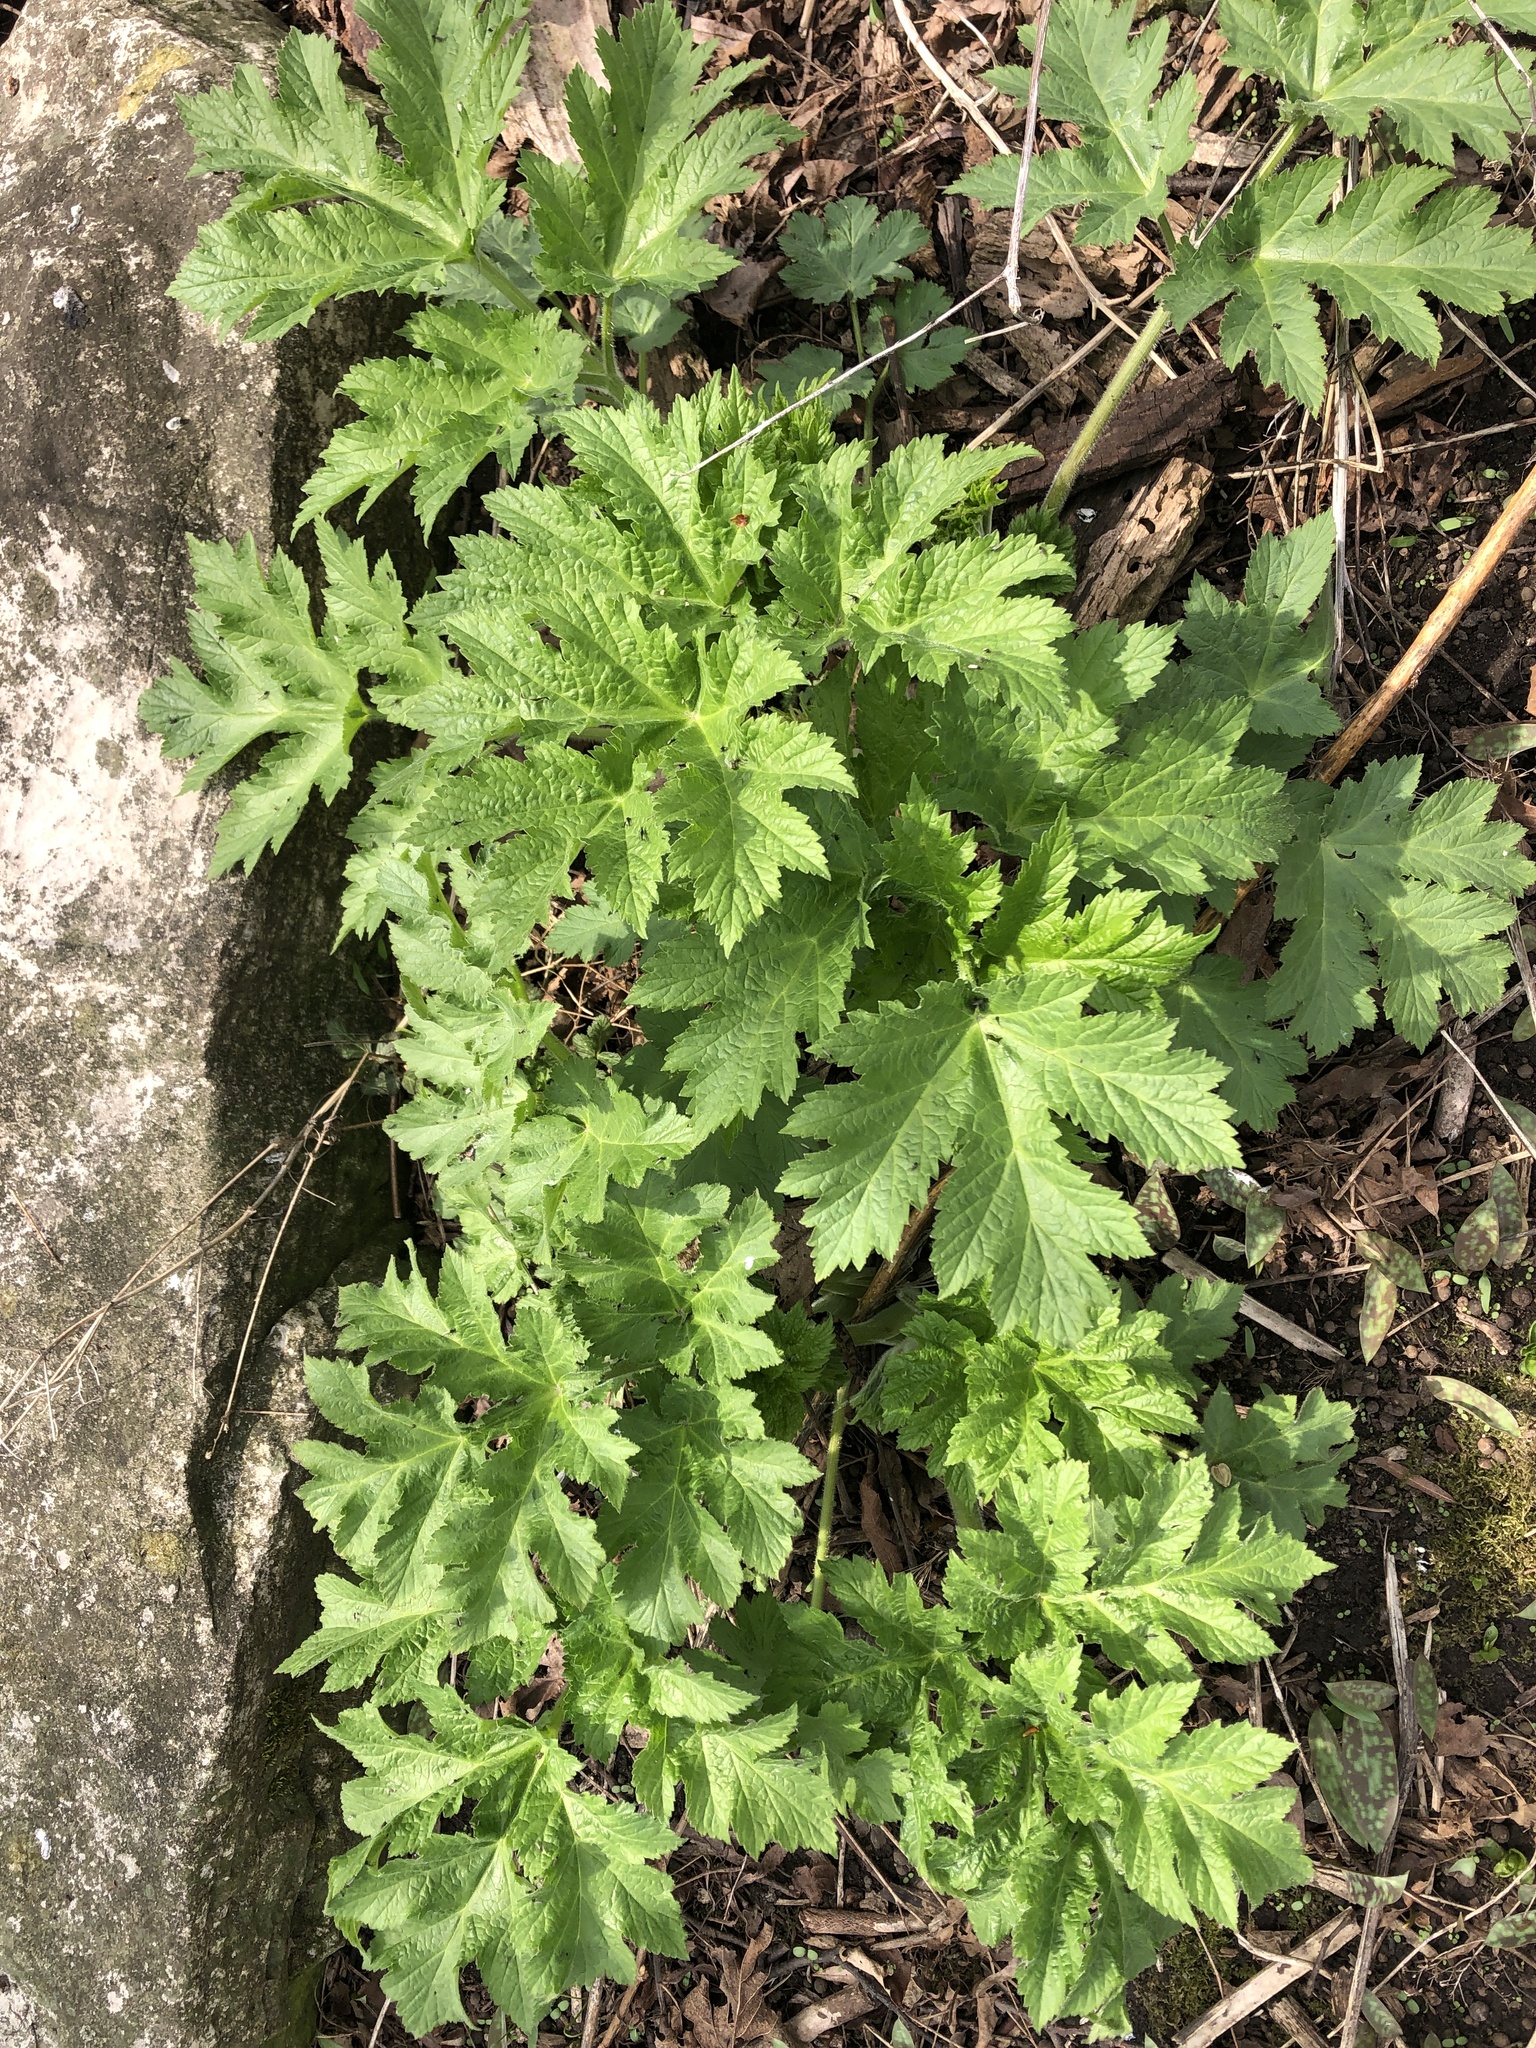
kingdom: Plantae
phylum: Tracheophyta
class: Magnoliopsida
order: Apiales
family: Apiaceae
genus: Heracleum
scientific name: Heracleum maximum
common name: American cow parsnip
